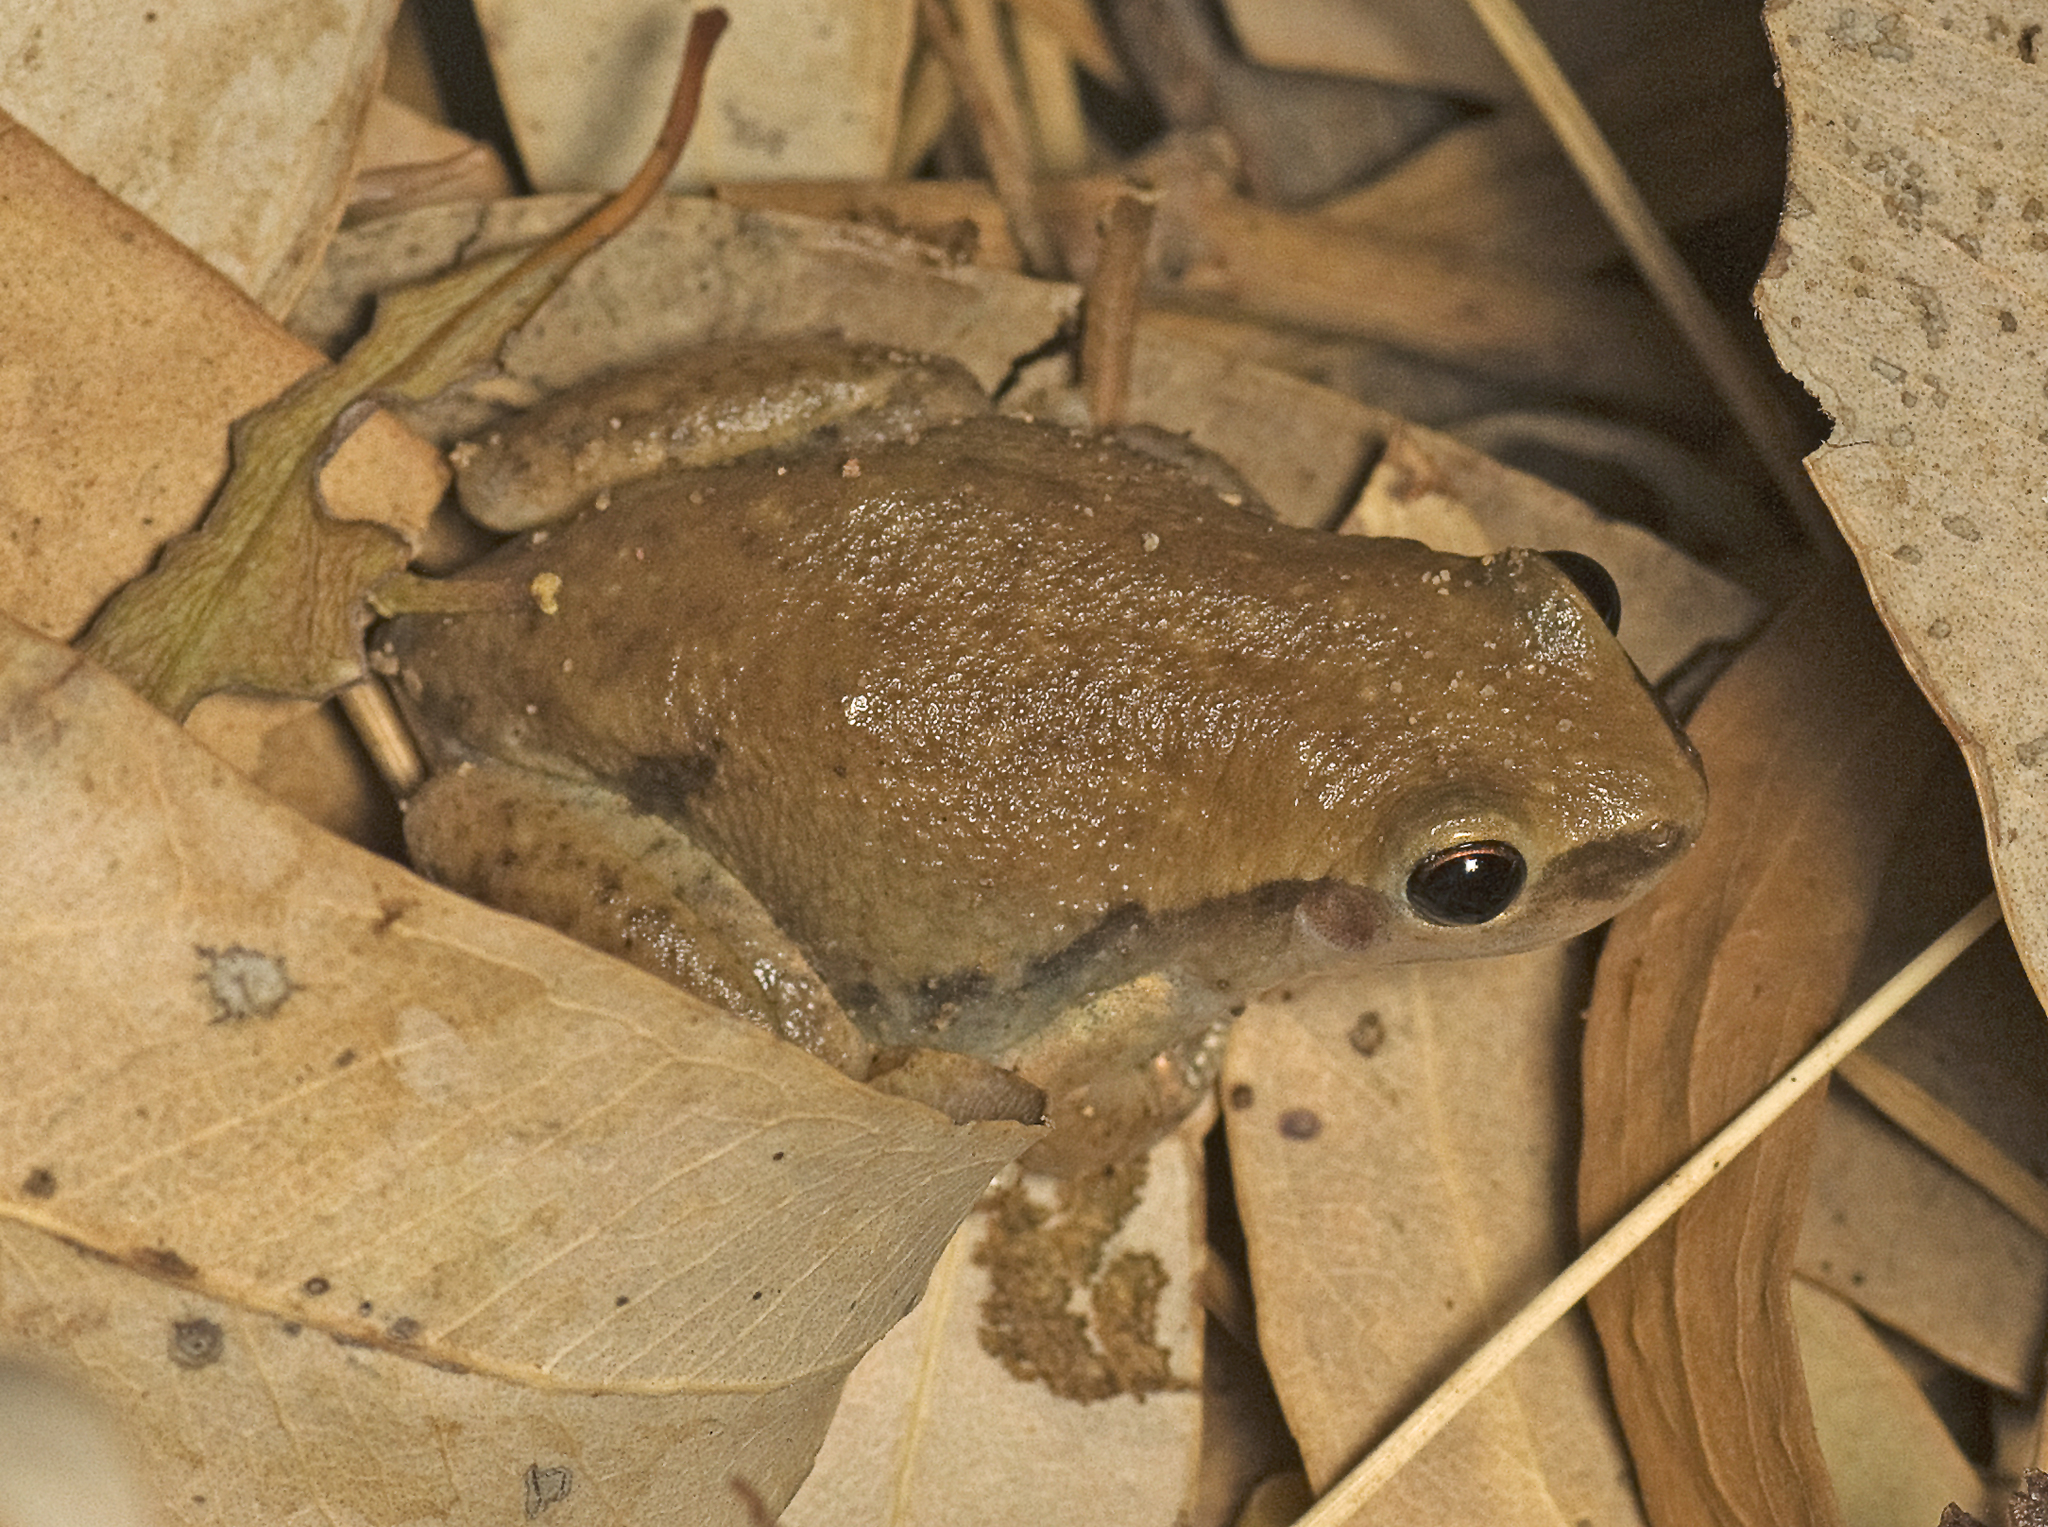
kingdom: Animalia
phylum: Chordata
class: Amphibia
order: Anura
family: Pelodryadidae
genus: Litoria
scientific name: Litoria rubella
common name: Desert tree frog
